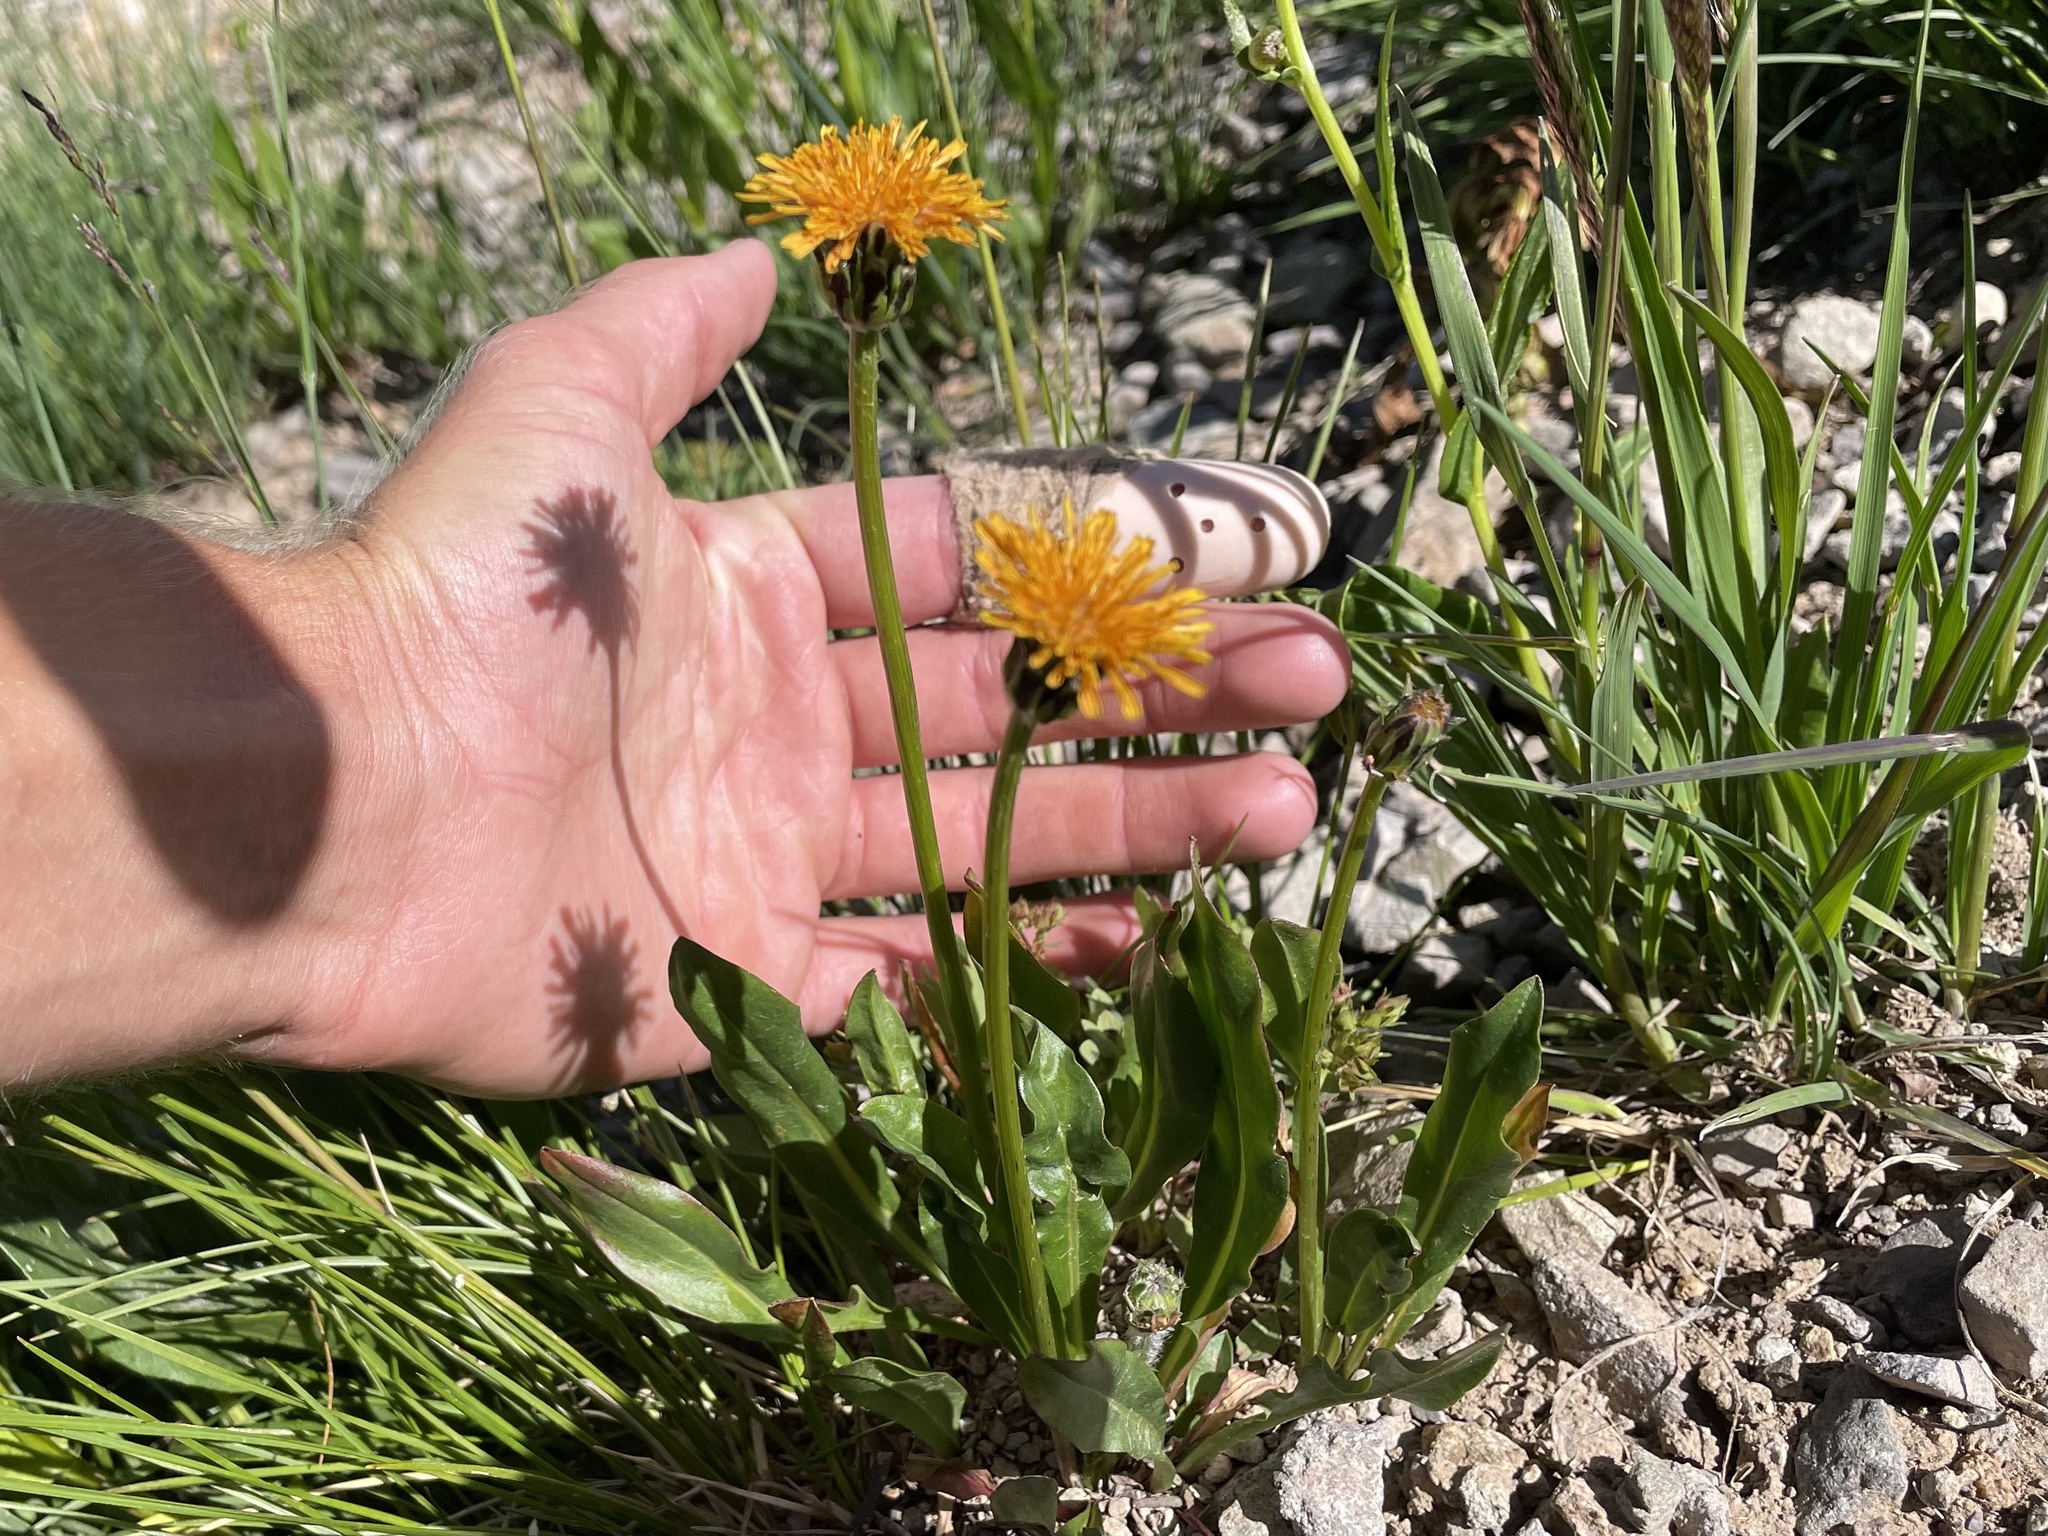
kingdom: Plantae
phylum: Tracheophyta
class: Magnoliopsida
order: Asterales
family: Asteraceae
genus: Agoseris
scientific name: Agoseris aurantiaca
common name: Mountain agoseris
